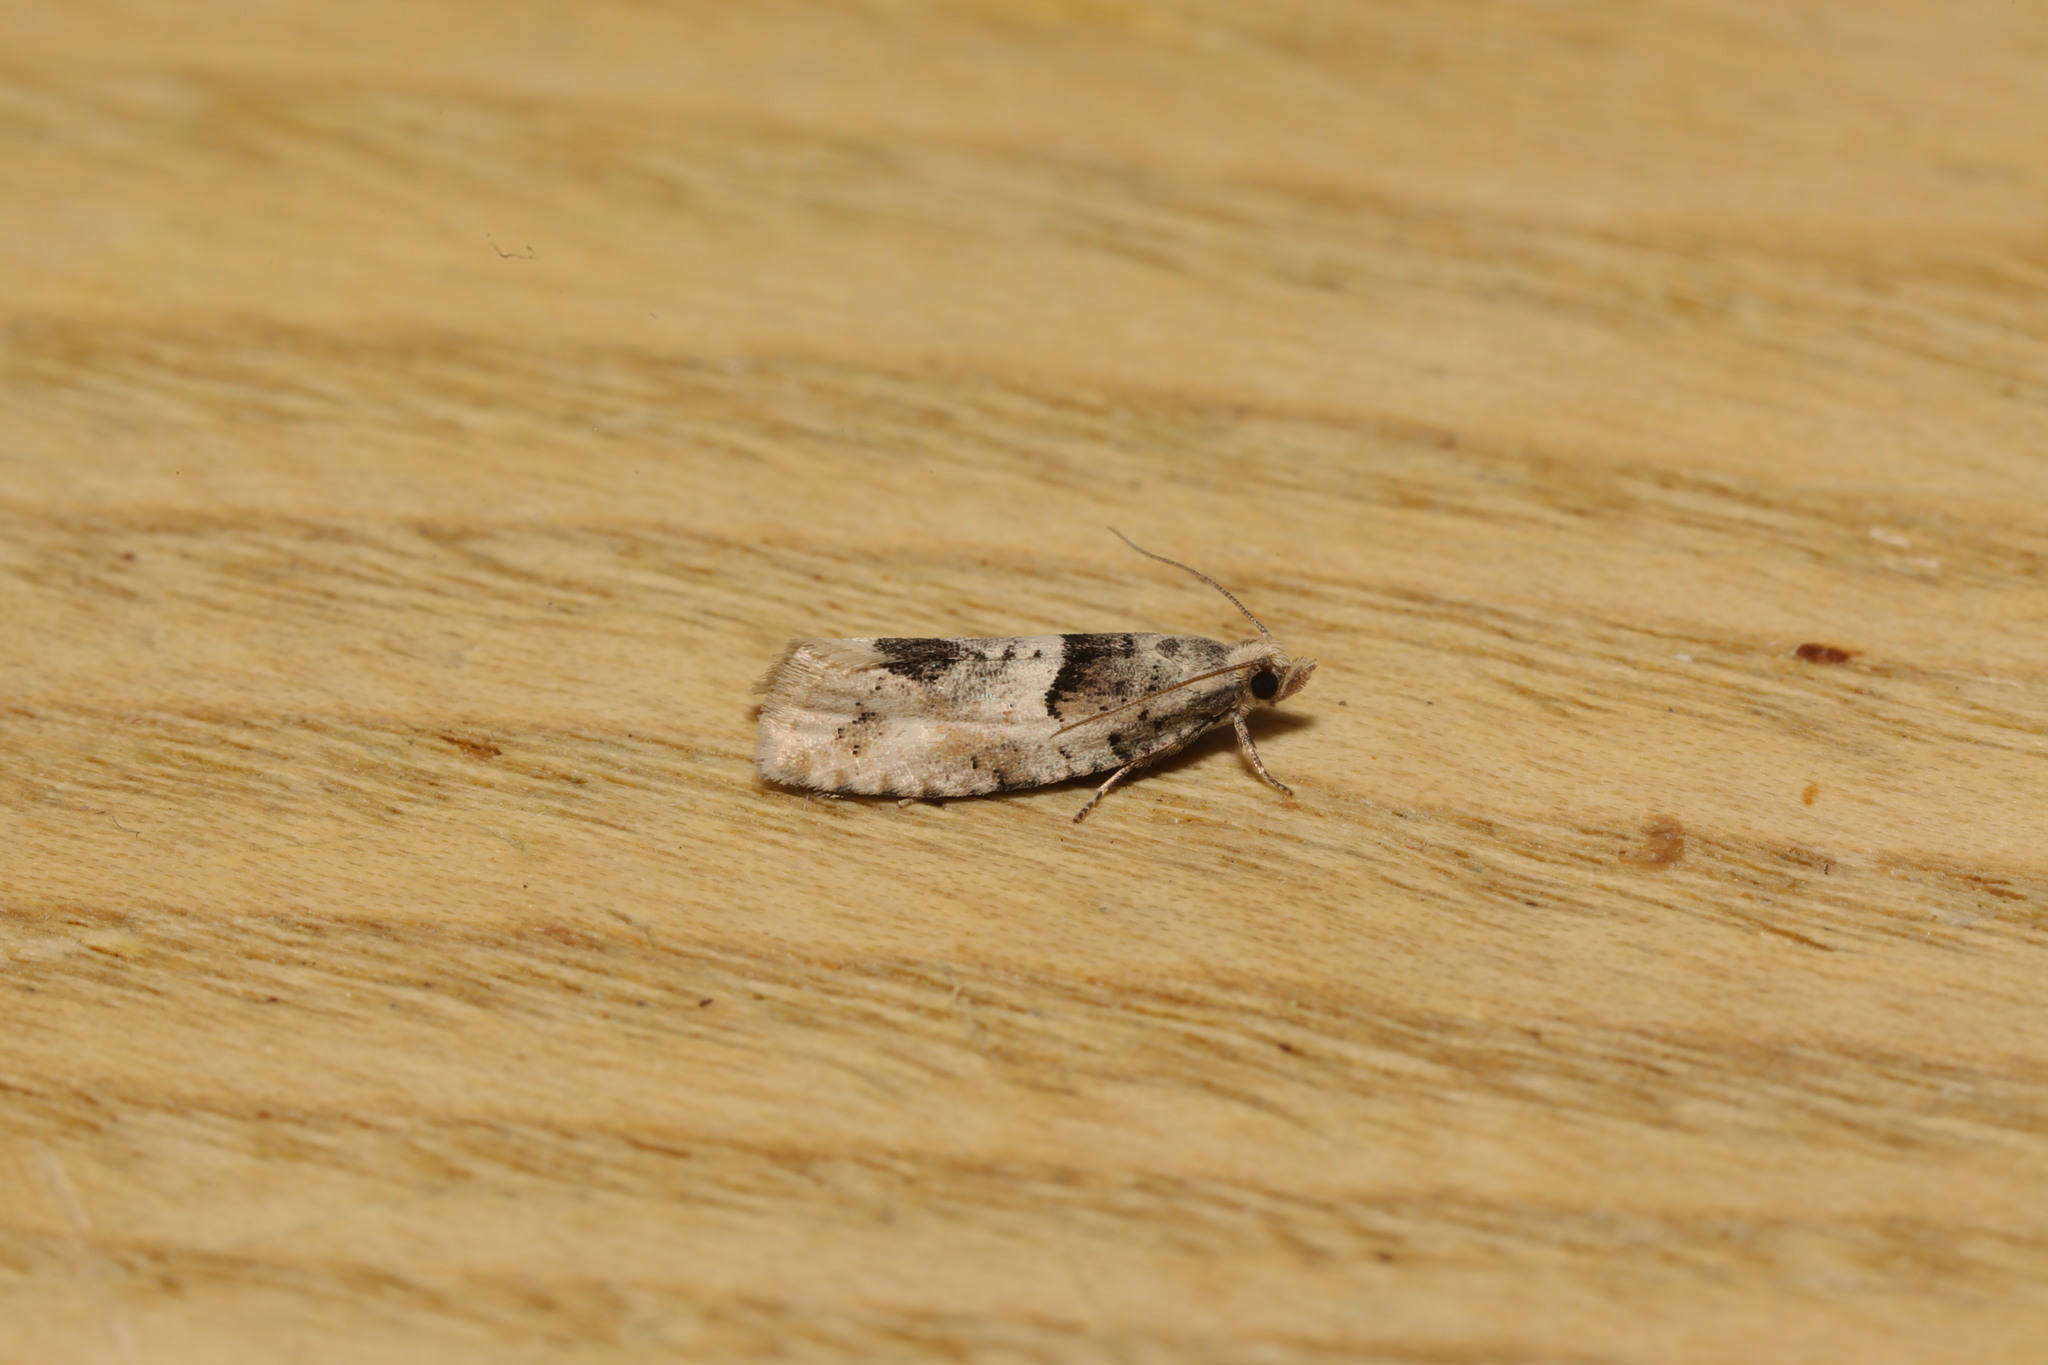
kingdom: Animalia
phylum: Arthropoda
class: Insecta
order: Lepidoptera
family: Tortricidae
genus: Epinotia
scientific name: Epinotia bilunana
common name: Crescent bell
